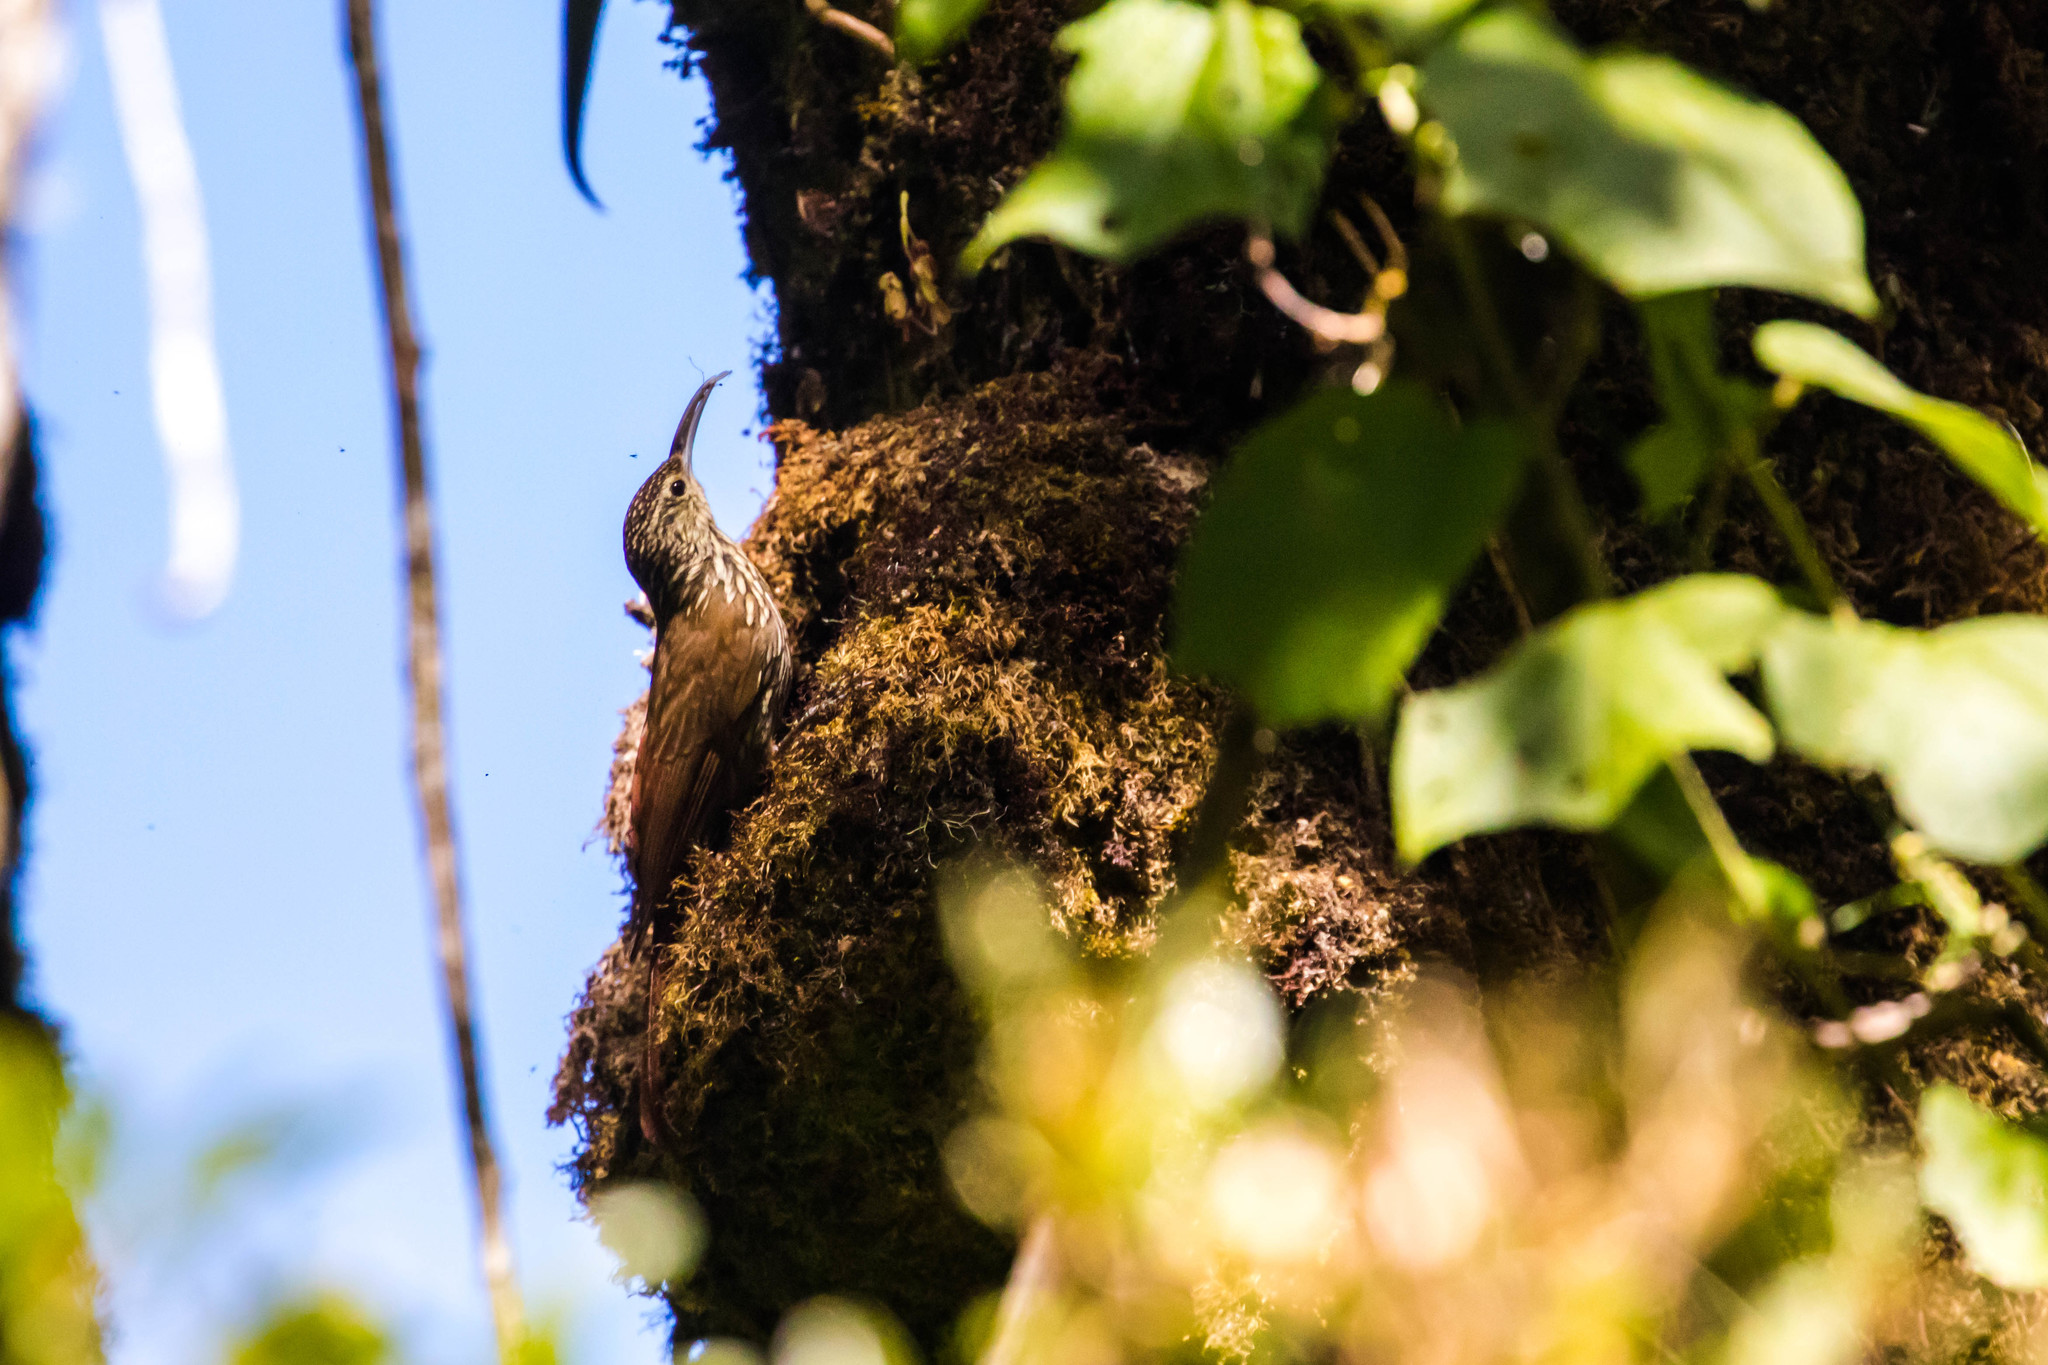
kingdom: Animalia
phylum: Chordata
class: Aves
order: Passeriformes
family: Furnariidae
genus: Lepidocolaptes
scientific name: Lepidocolaptes affinis
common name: Spot-crowned woodcreeper
